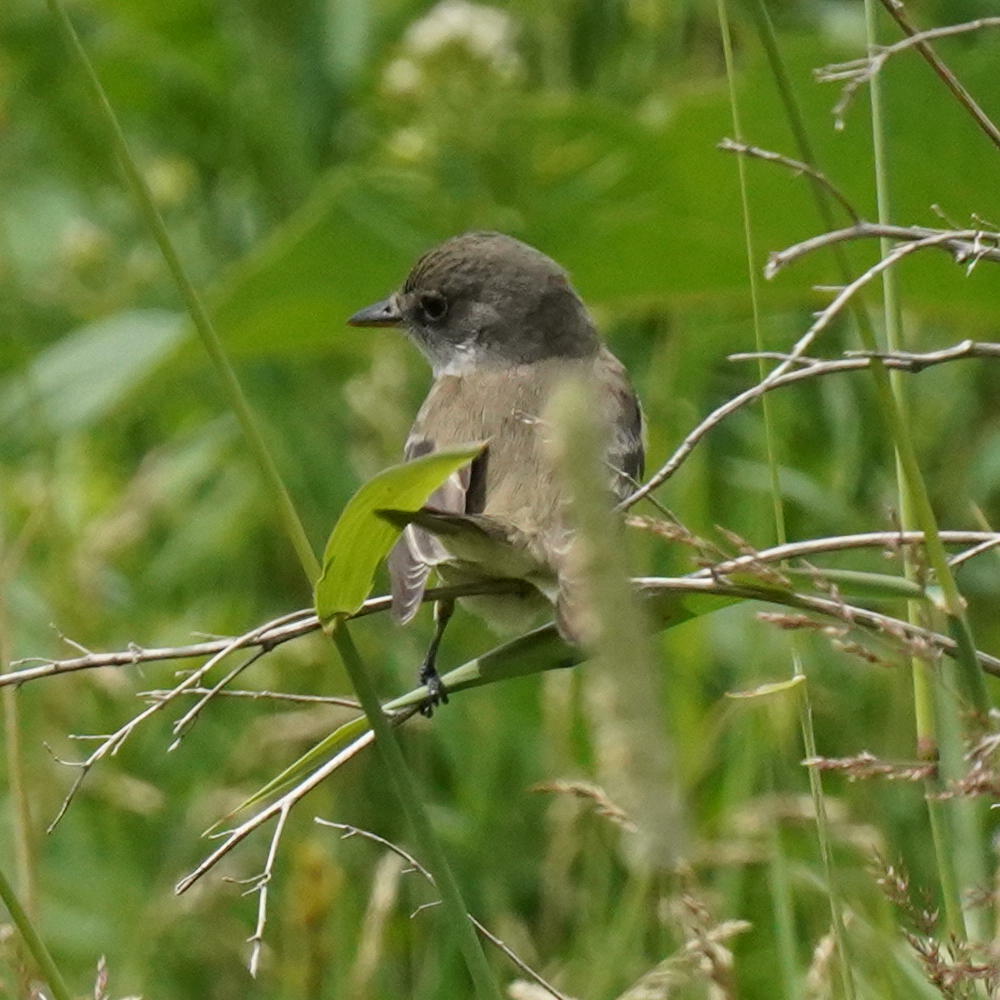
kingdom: Animalia
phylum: Chordata
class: Aves
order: Passeriformes
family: Tyrannidae
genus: Empidonax
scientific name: Empidonax traillii
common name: Willow flycatcher
